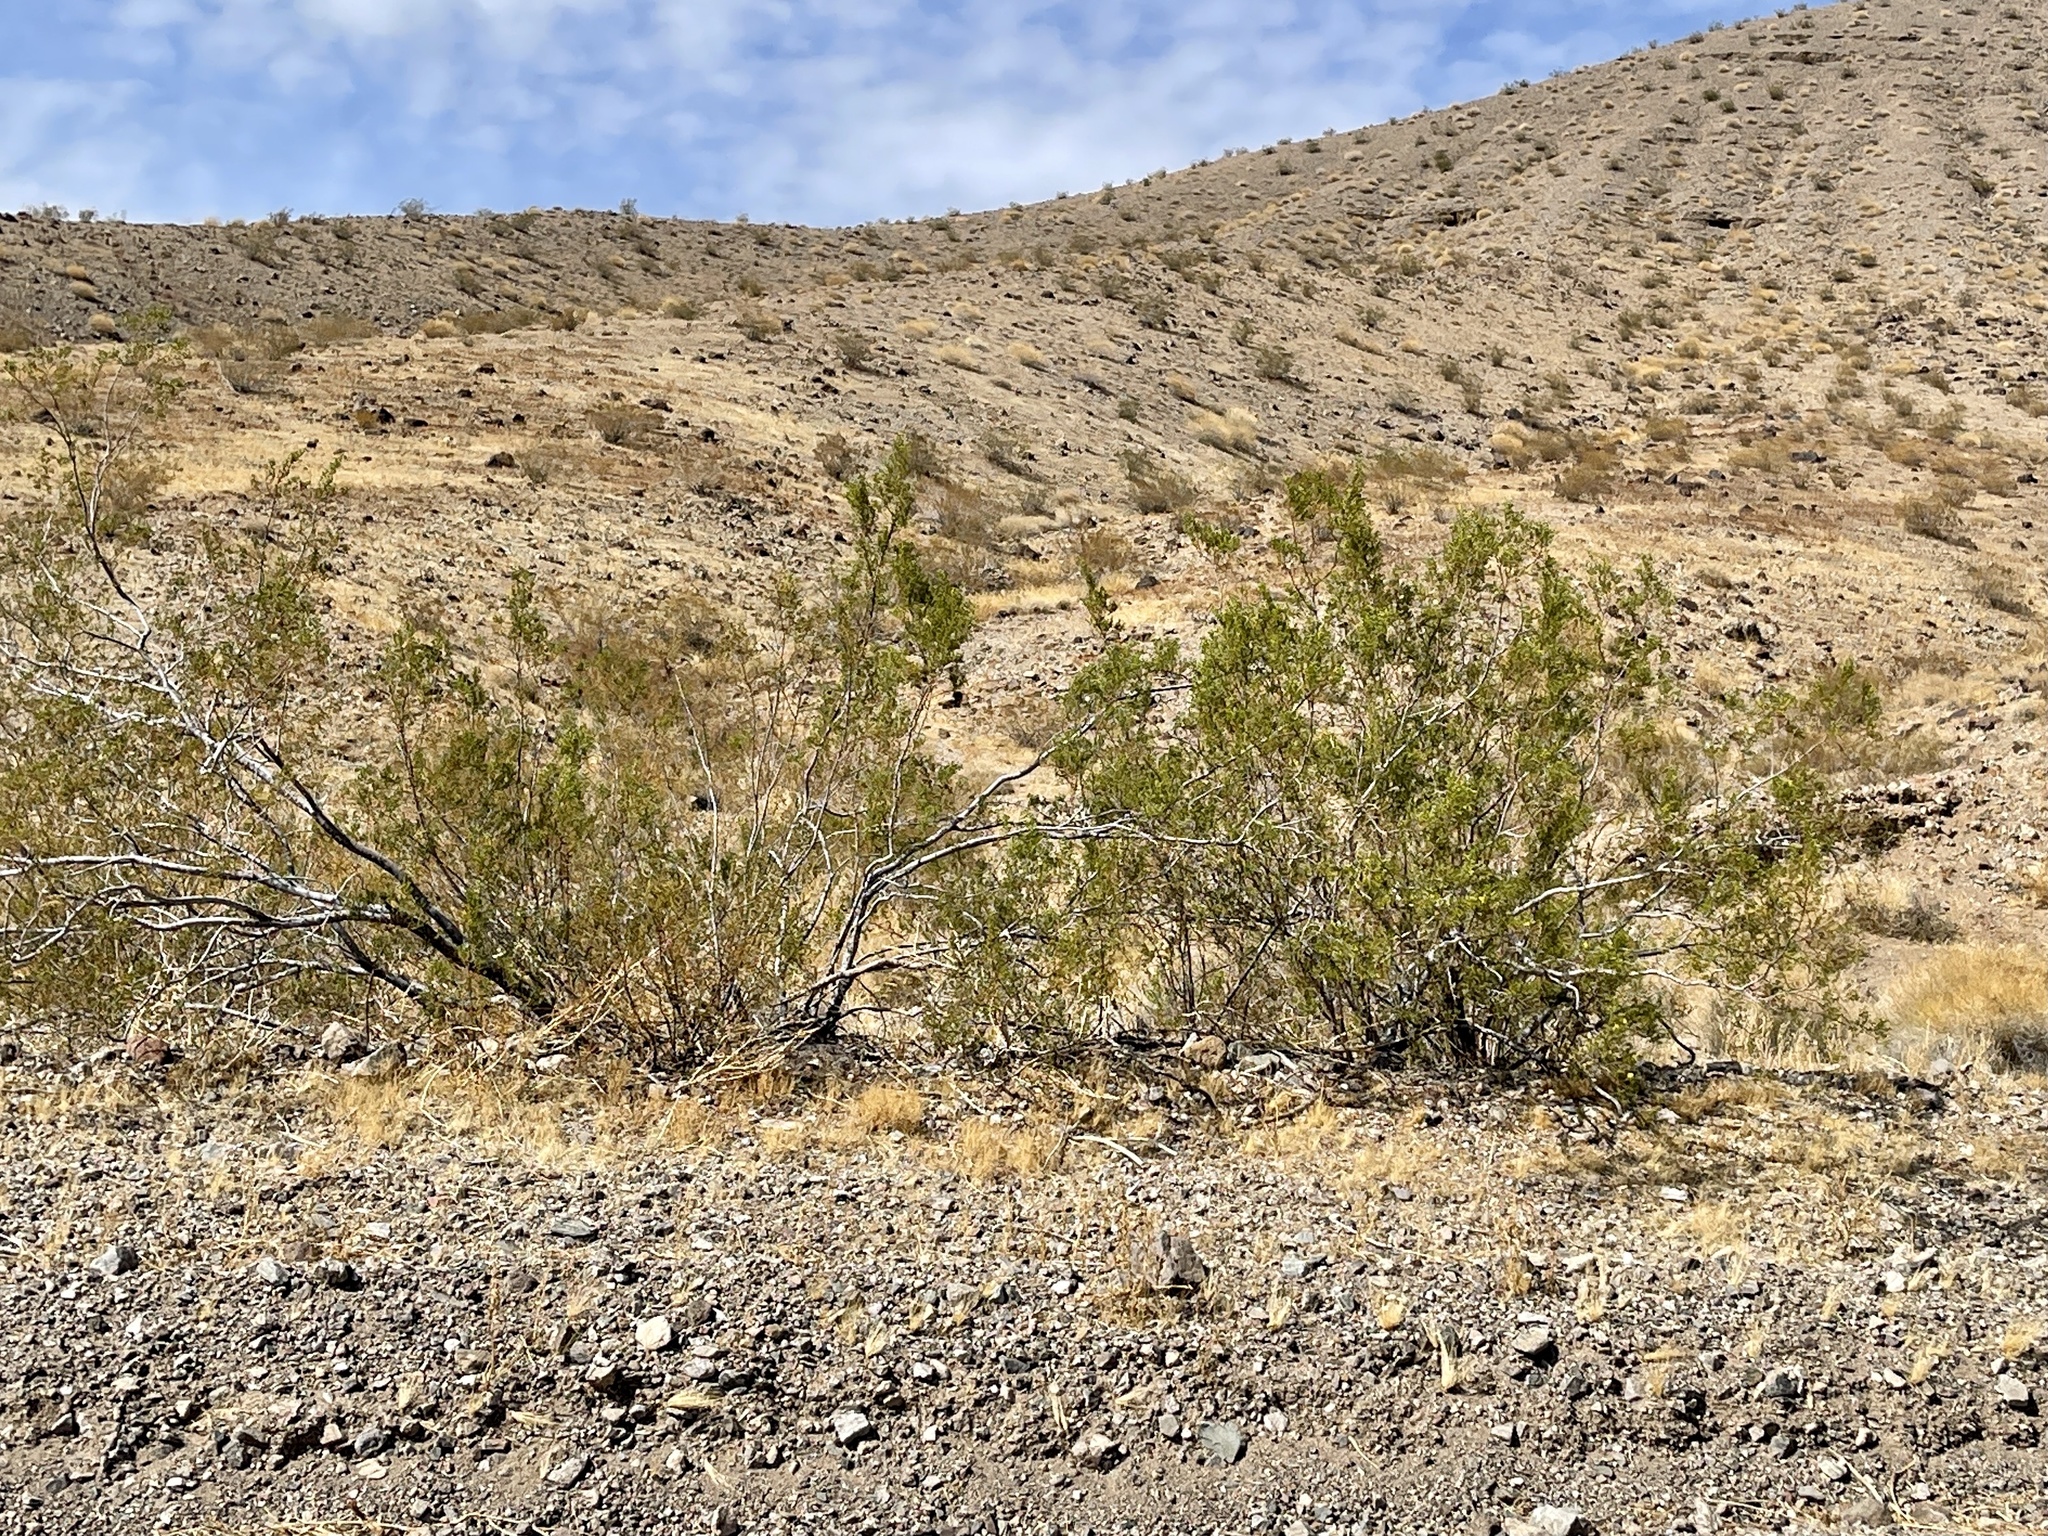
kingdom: Plantae
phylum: Tracheophyta
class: Magnoliopsida
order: Zygophyllales
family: Zygophyllaceae
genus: Larrea
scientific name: Larrea tridentata
